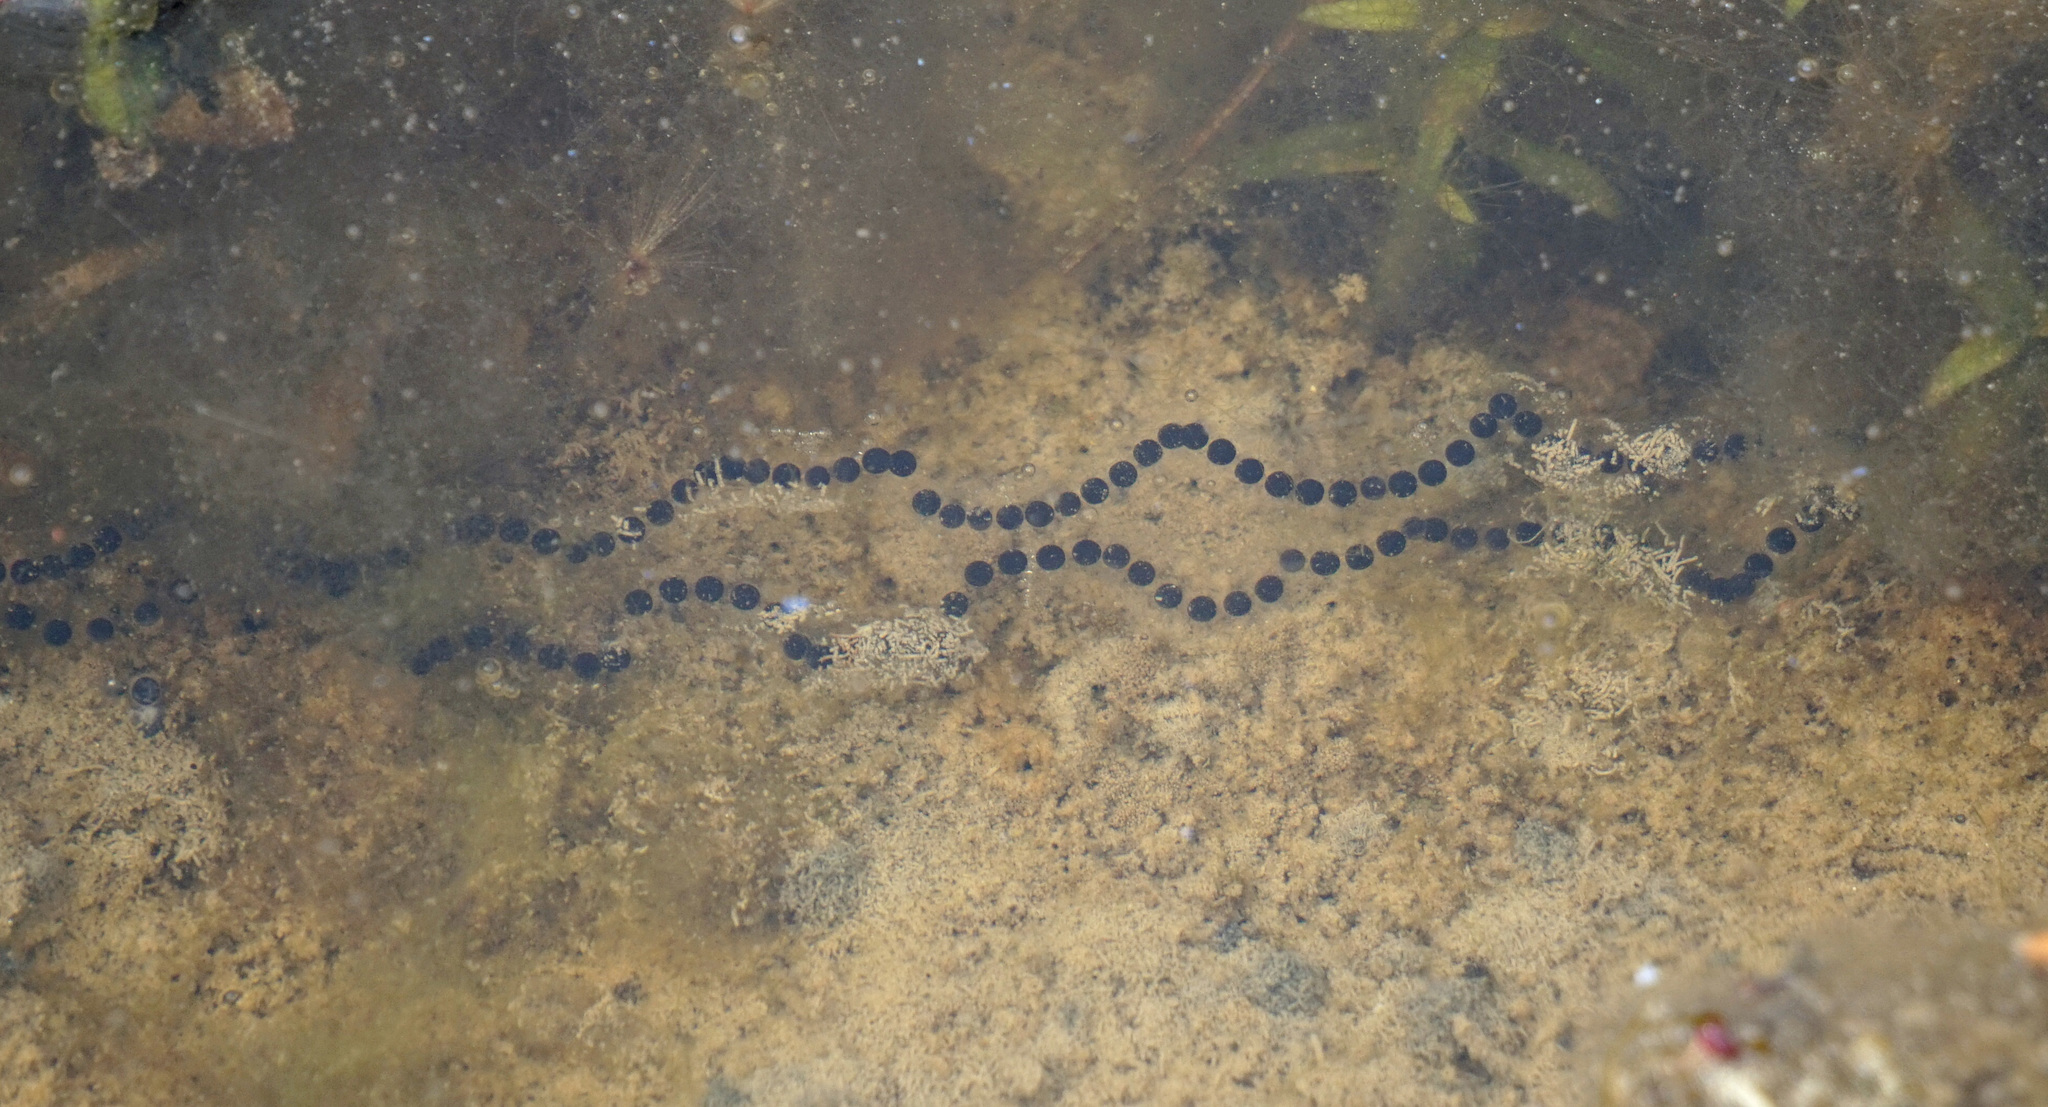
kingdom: Animalia
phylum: Chordata
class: Amphibia
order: Anura
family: Bufonidae
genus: Anaxyrus
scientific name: Anaxyrus americanus
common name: American toad
